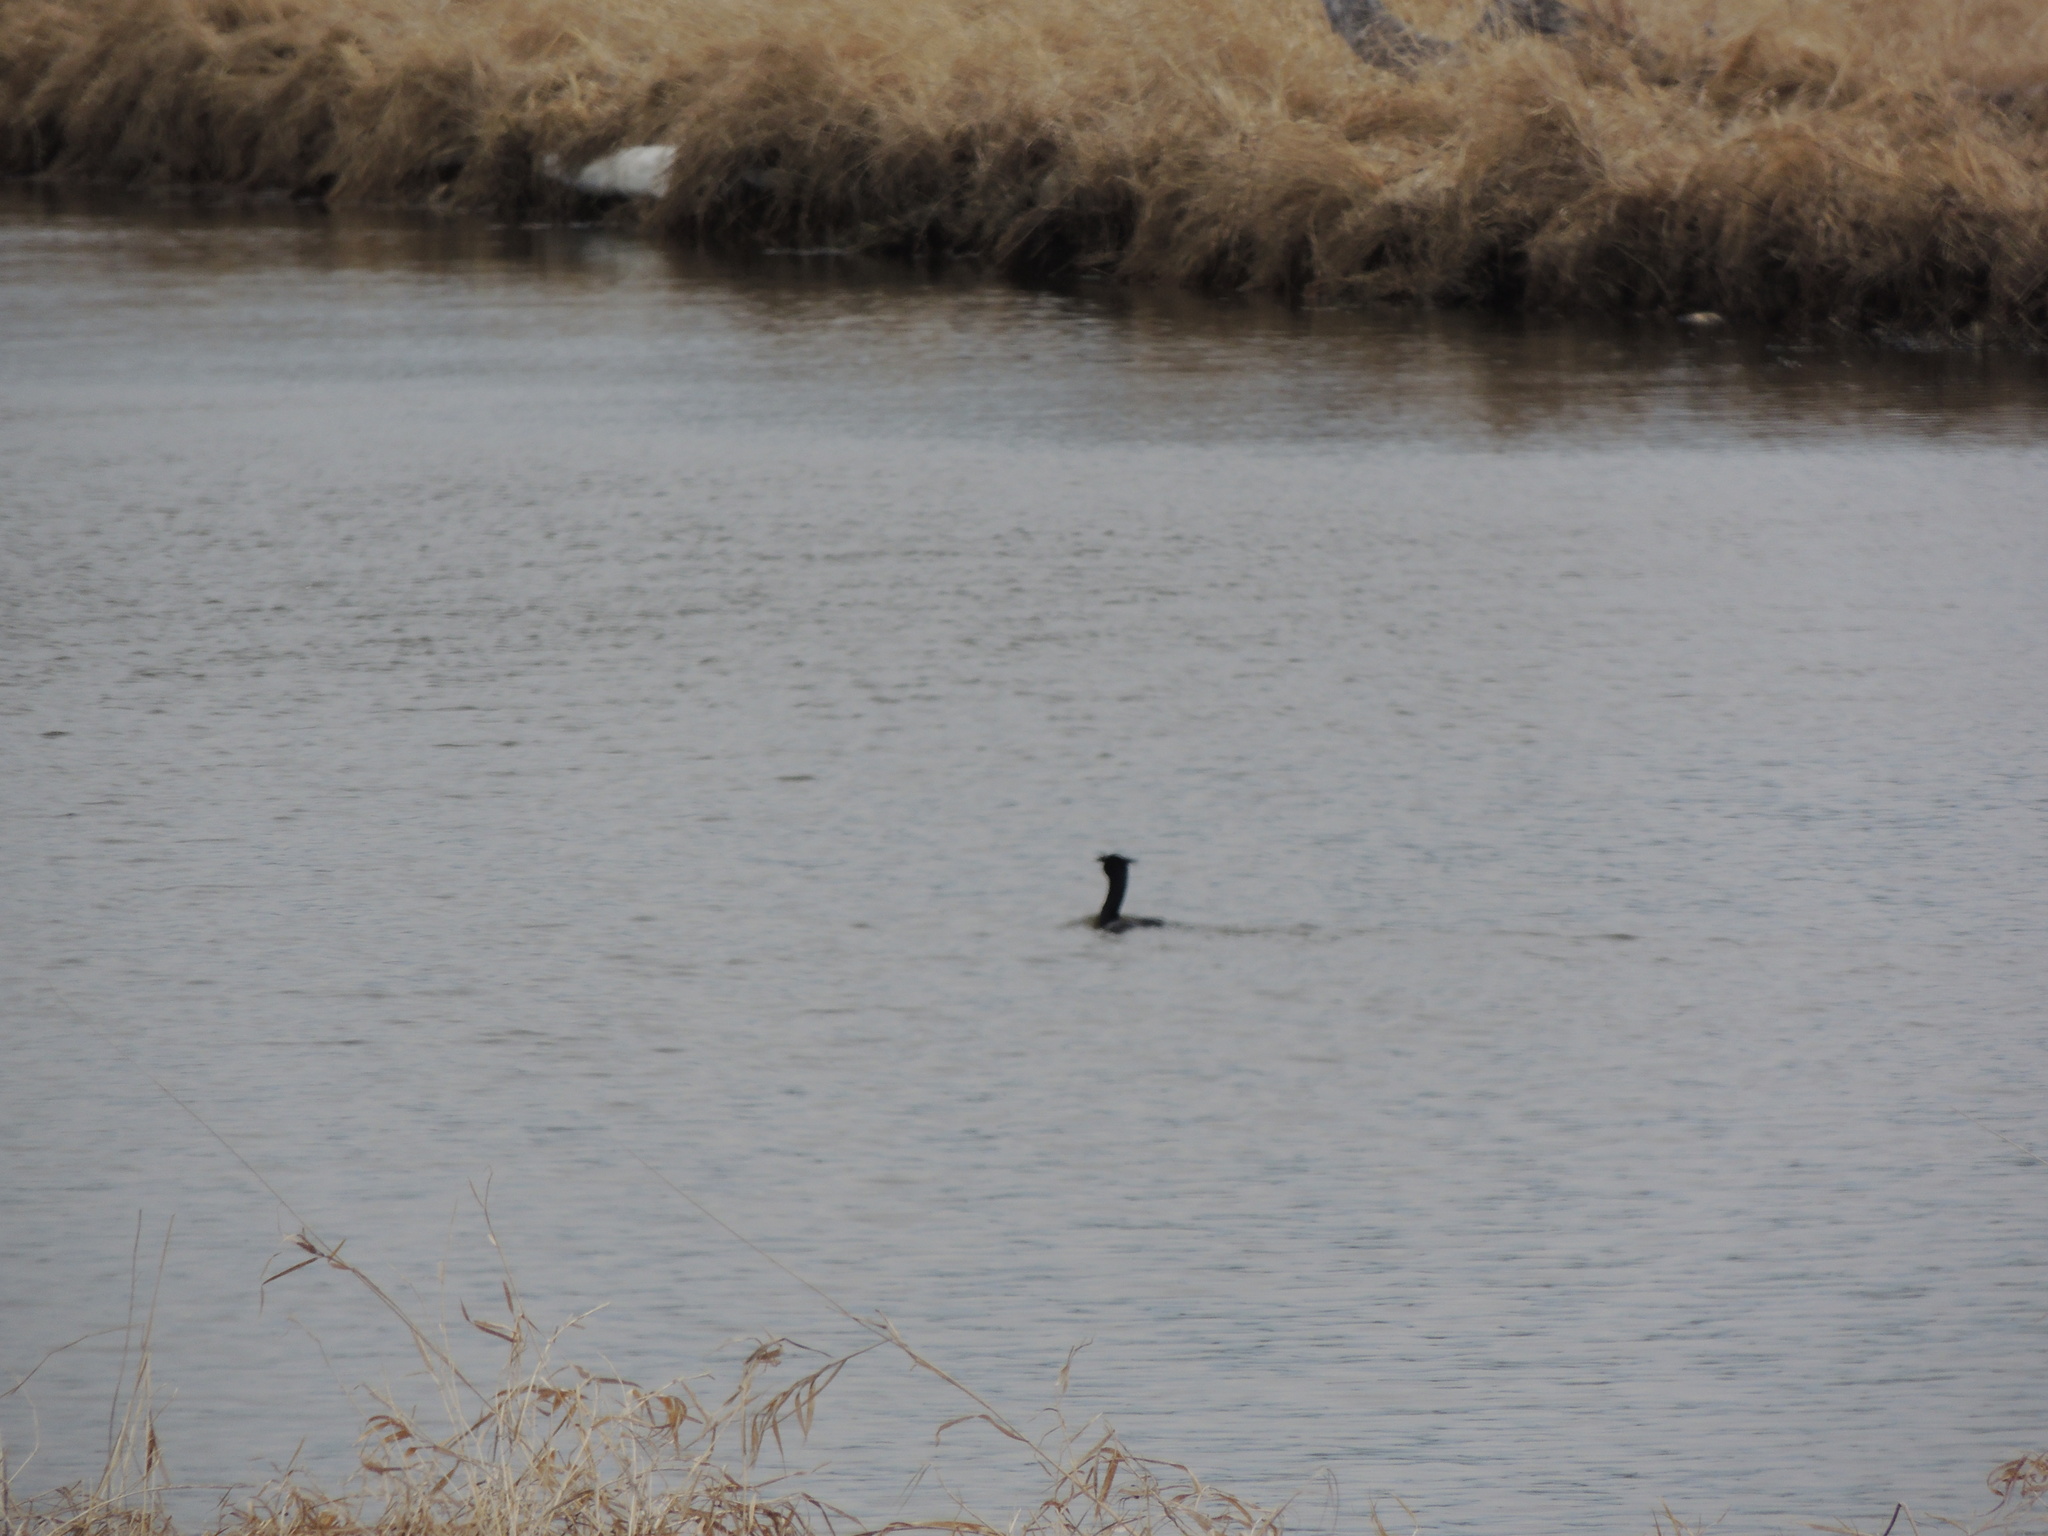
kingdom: Animalia
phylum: Chordata
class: Aves
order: Suliformes
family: Phalacrocoracidae
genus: Phalacrocorax
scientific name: Phalacrocorax auritus
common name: Double-crested cormorant
